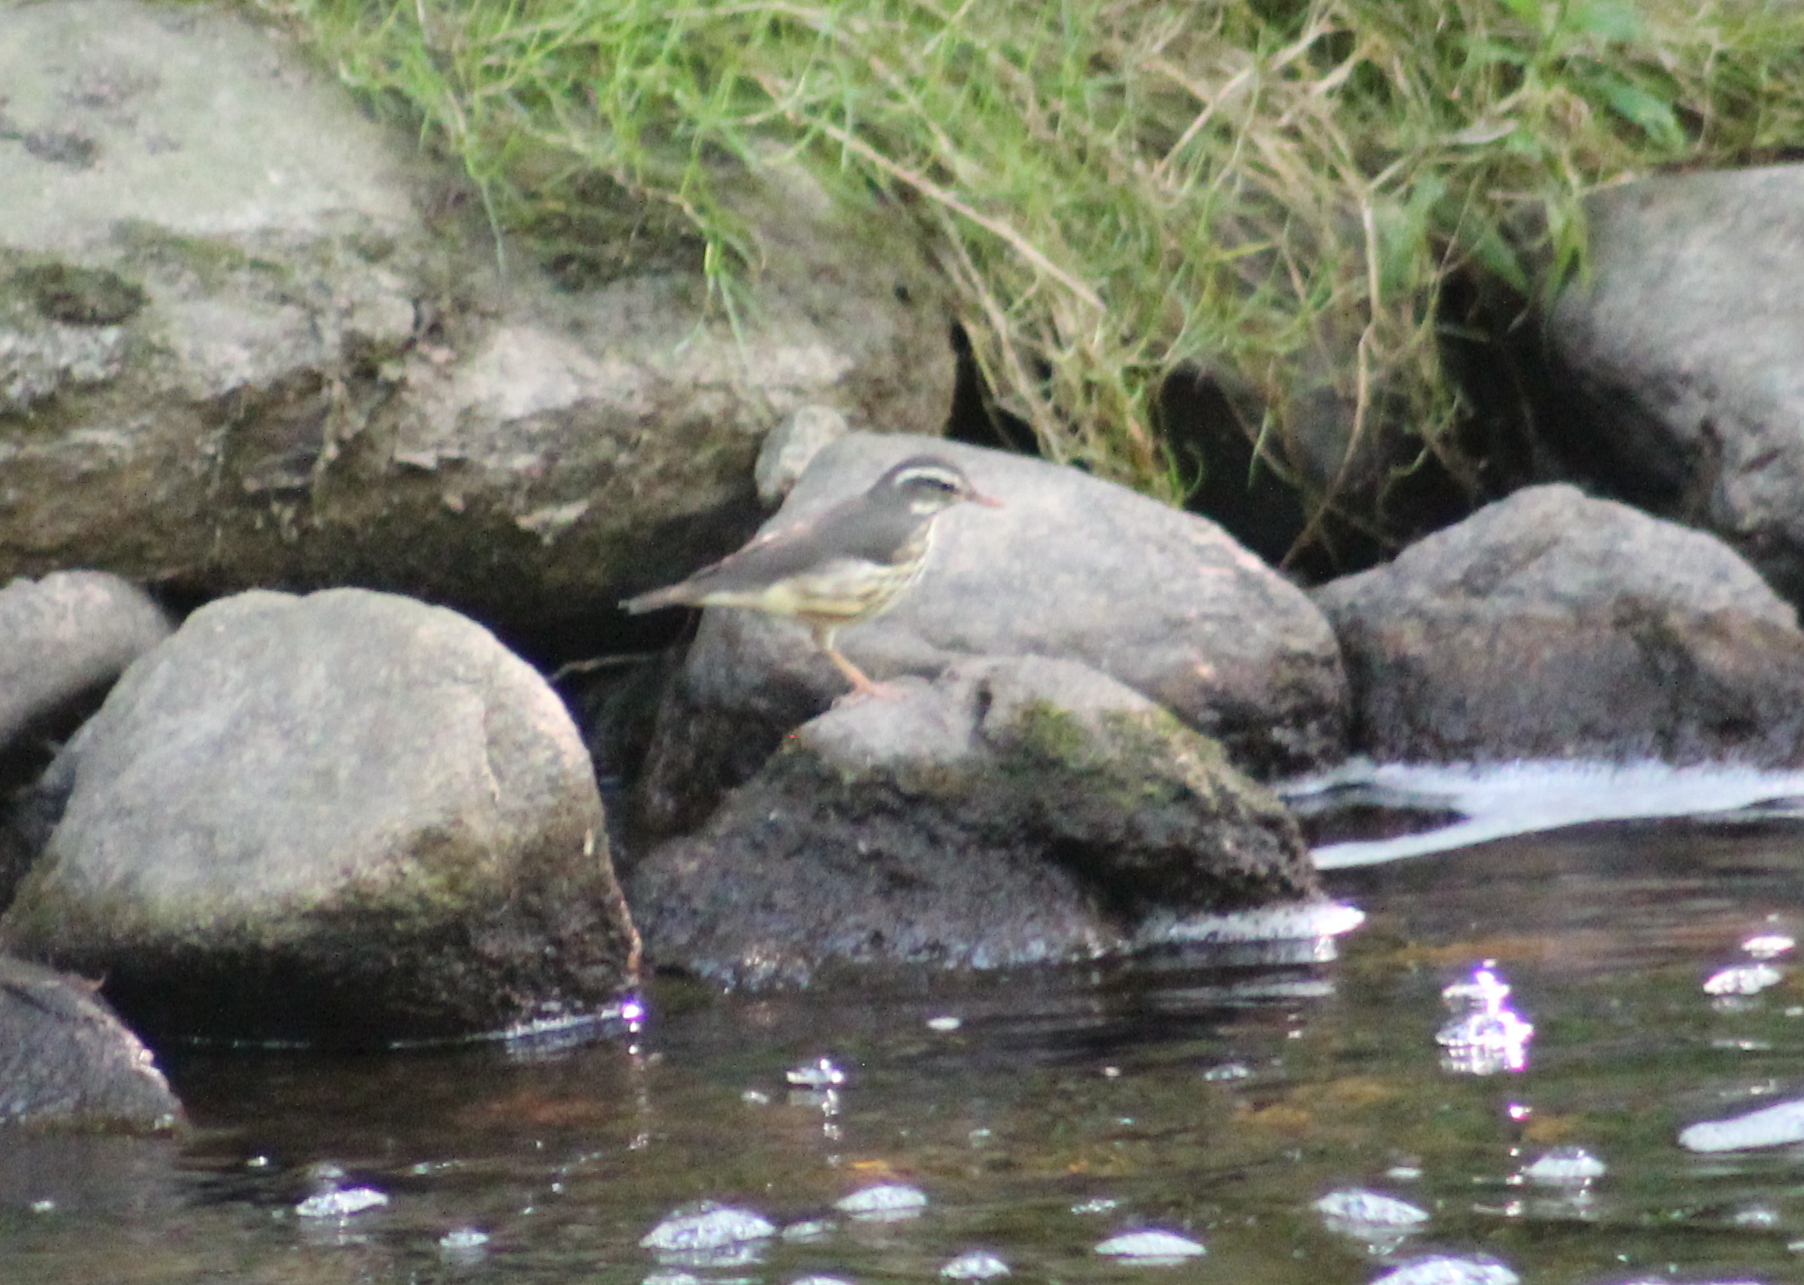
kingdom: Animalia
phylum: Chordata
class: Aves
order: Passeriformes
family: Parulidae
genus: Parkesia
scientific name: Parkesia motacilla
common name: Louisiana waterthrush
